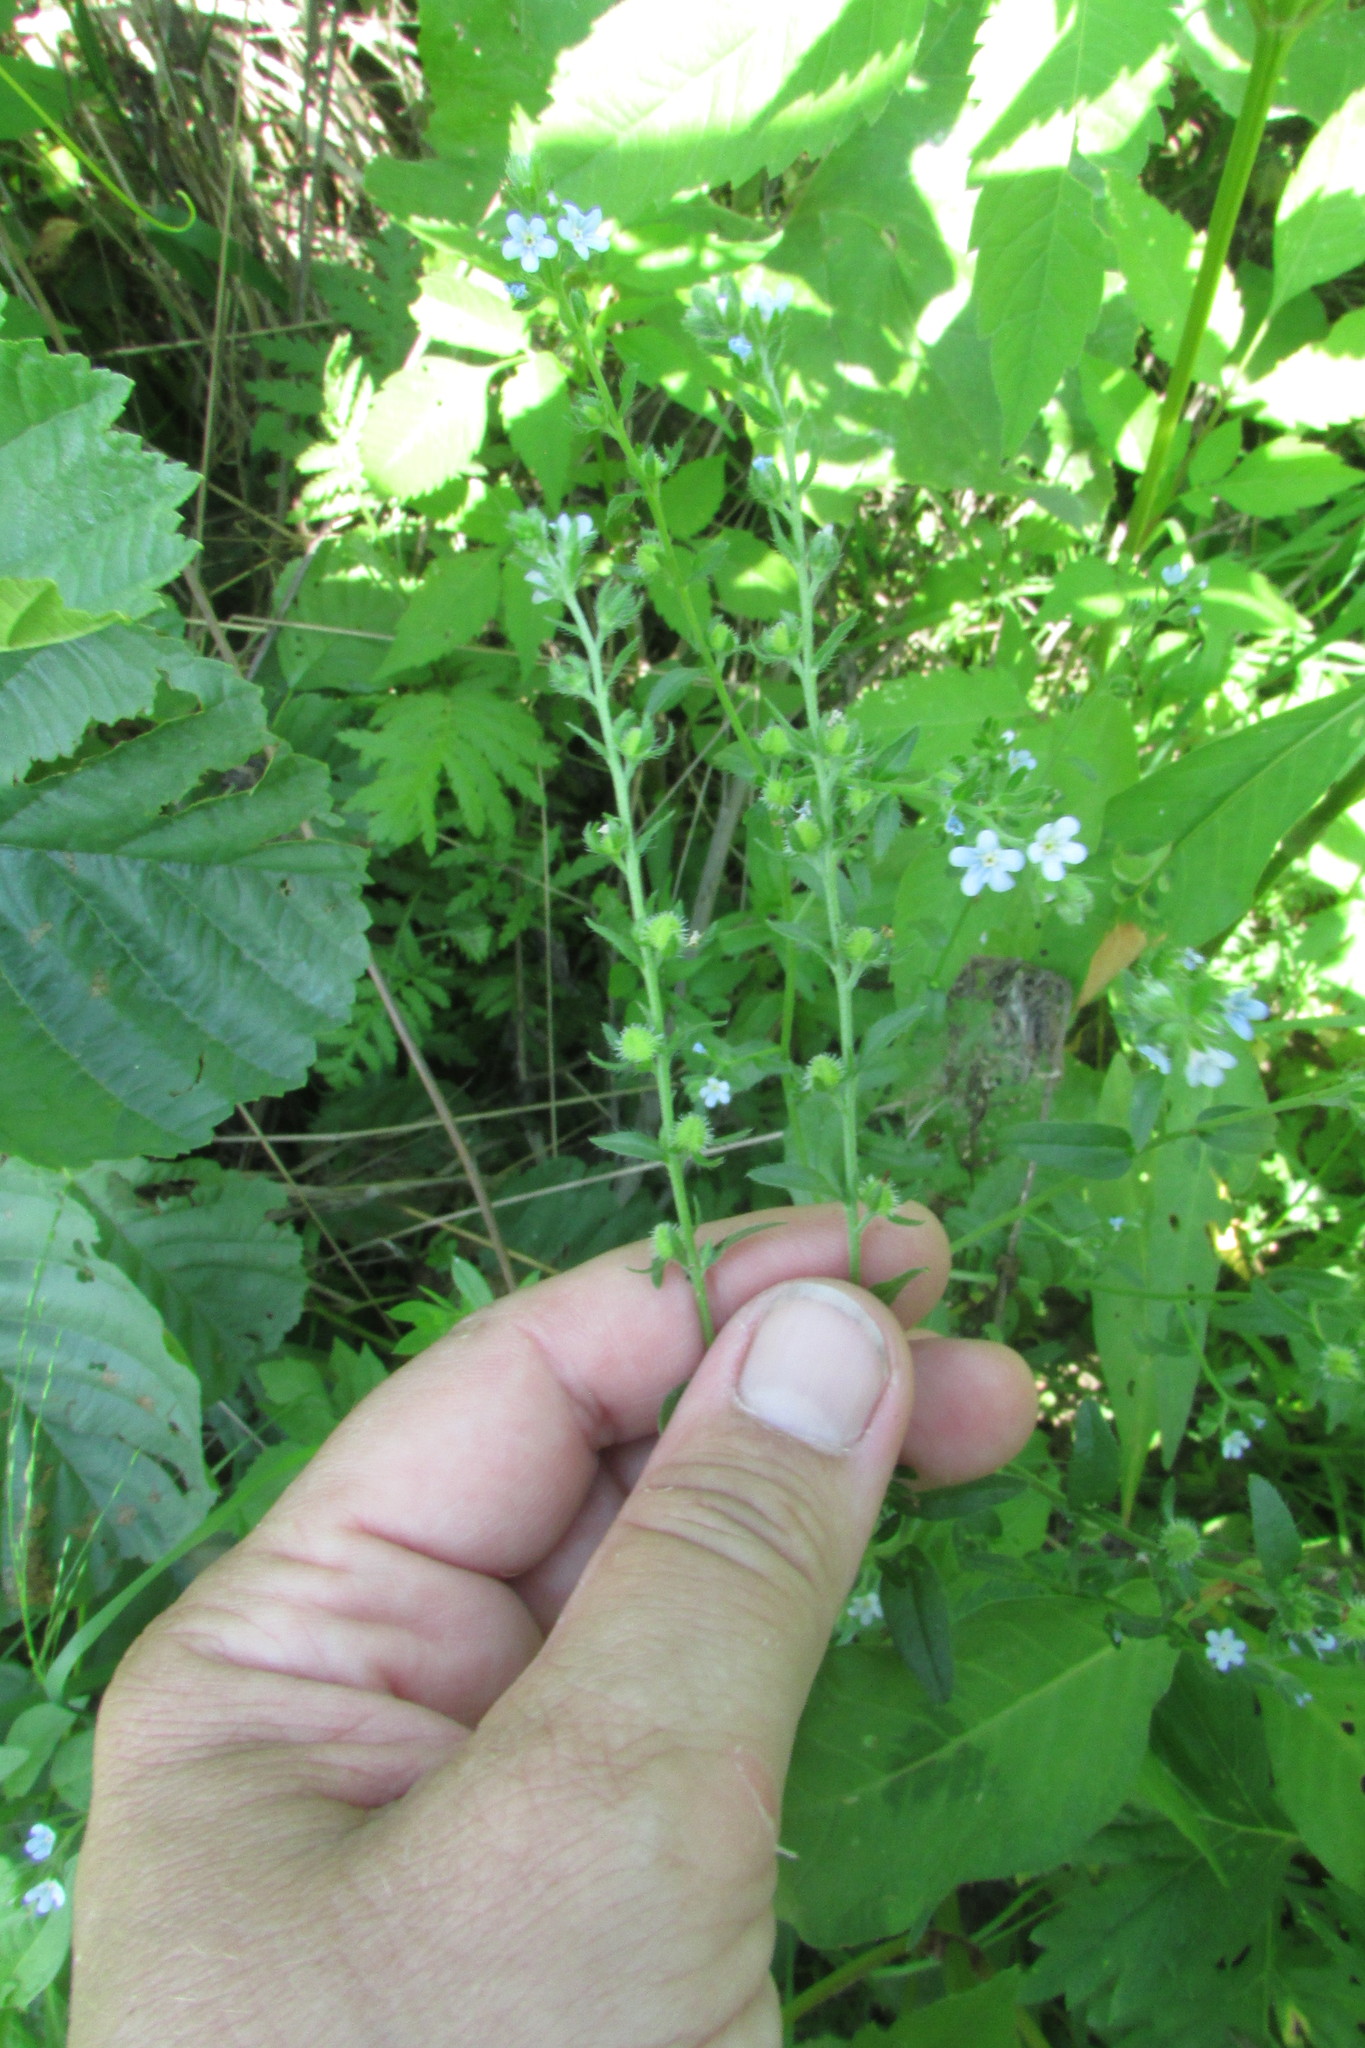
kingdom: Plantae
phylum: Tracheophyta
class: Magnoliopsida
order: Boraginales
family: Boraginaceae
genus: Lappula
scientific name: Lappula squarrosa
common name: European stickseed
